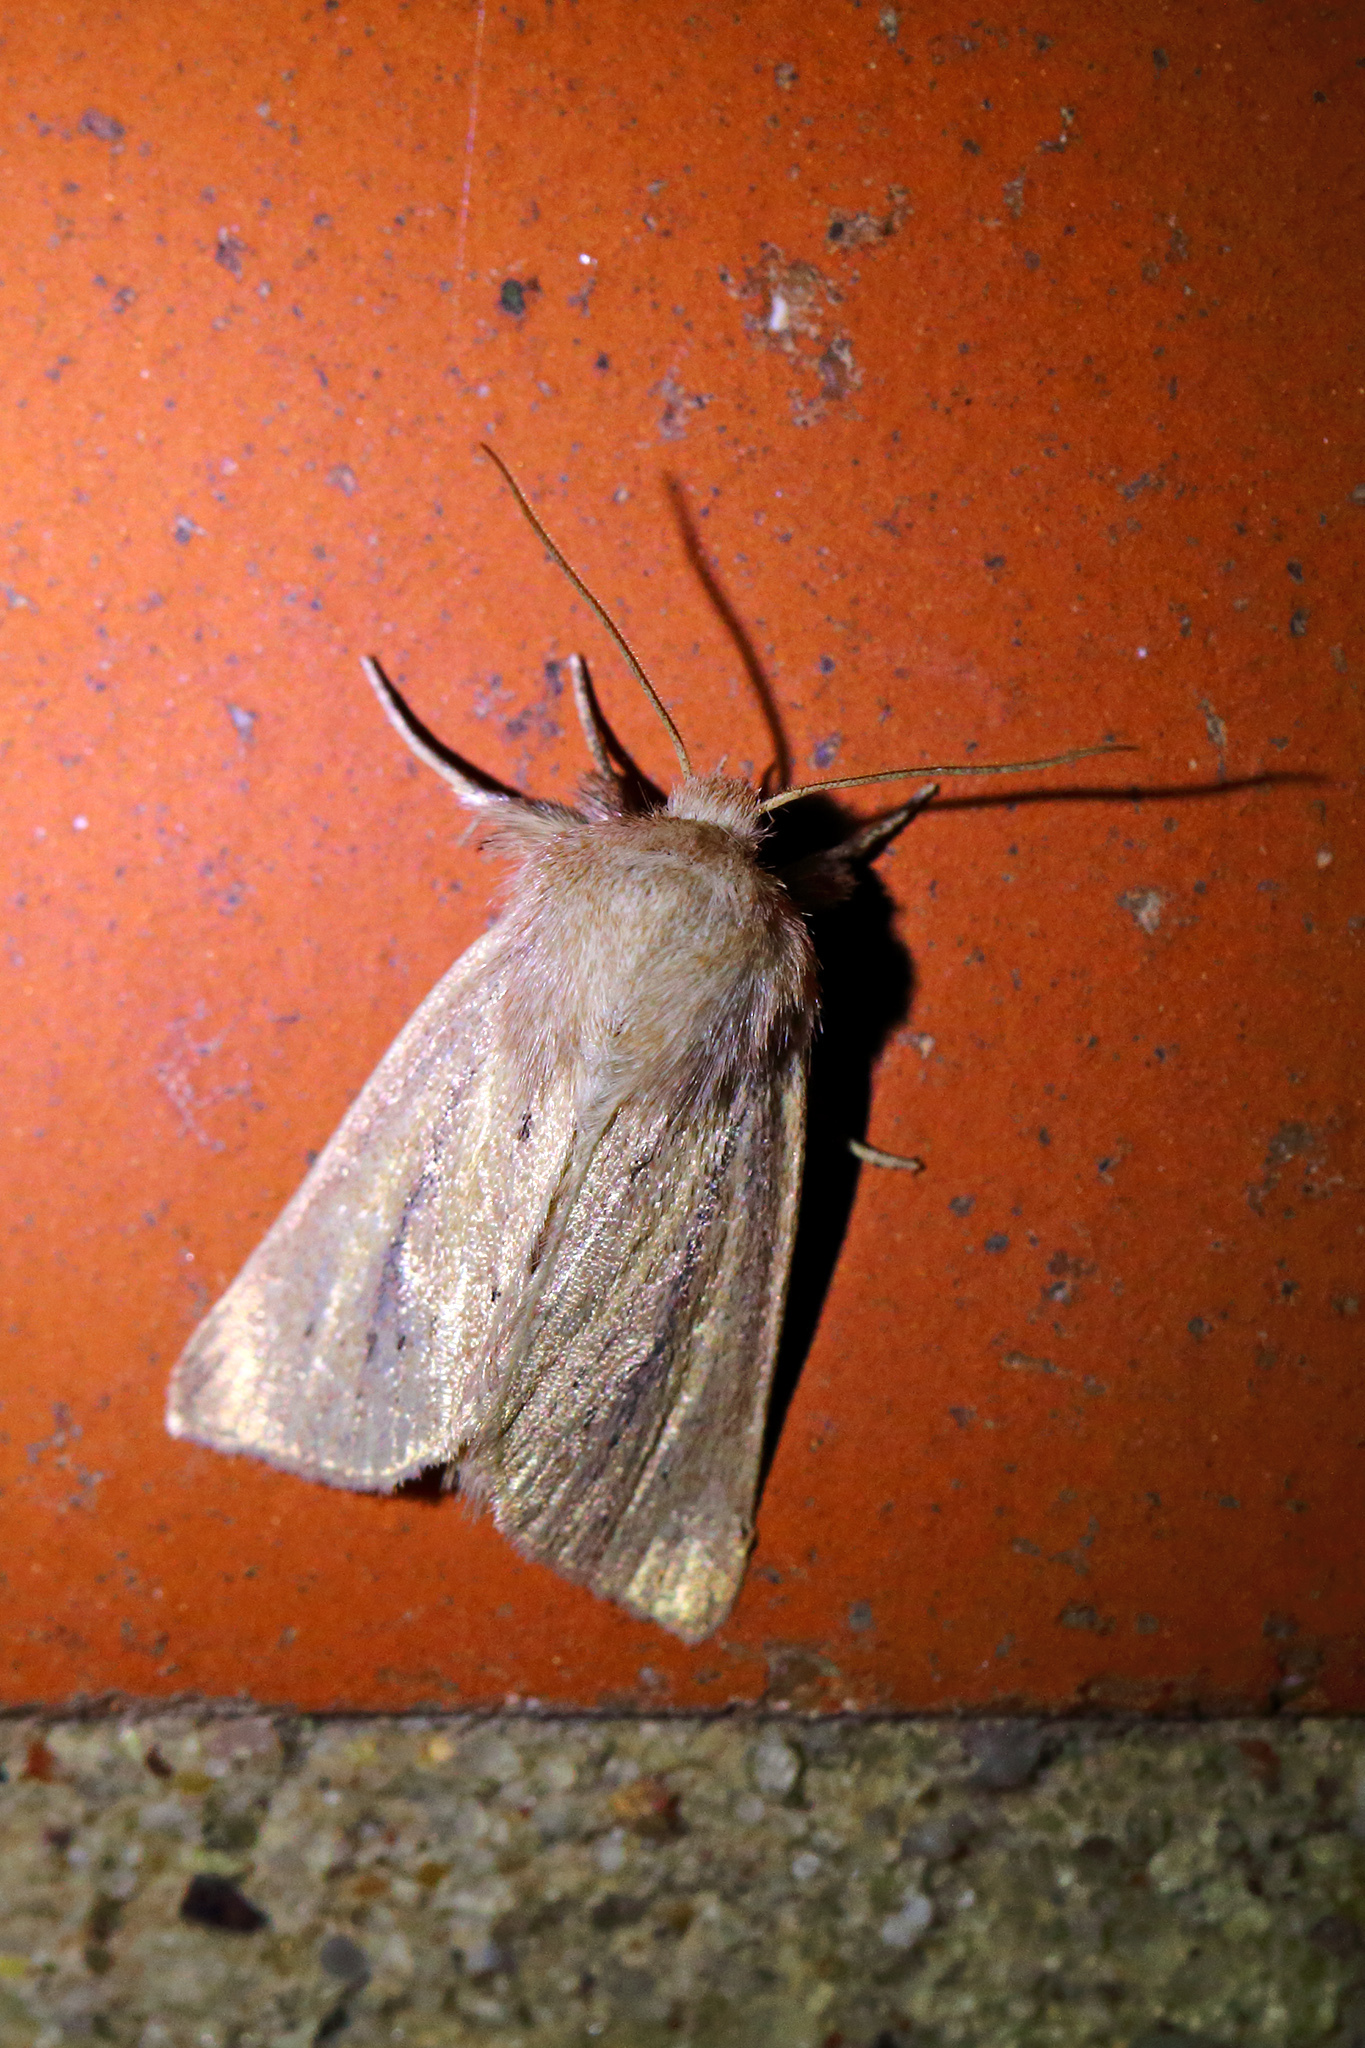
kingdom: Animalia
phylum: Arthropoda
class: Insecta
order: Lepidoptera
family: Noctuidae
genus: Denticucullus
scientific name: Denticucullus pygmina
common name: Small wainscot
